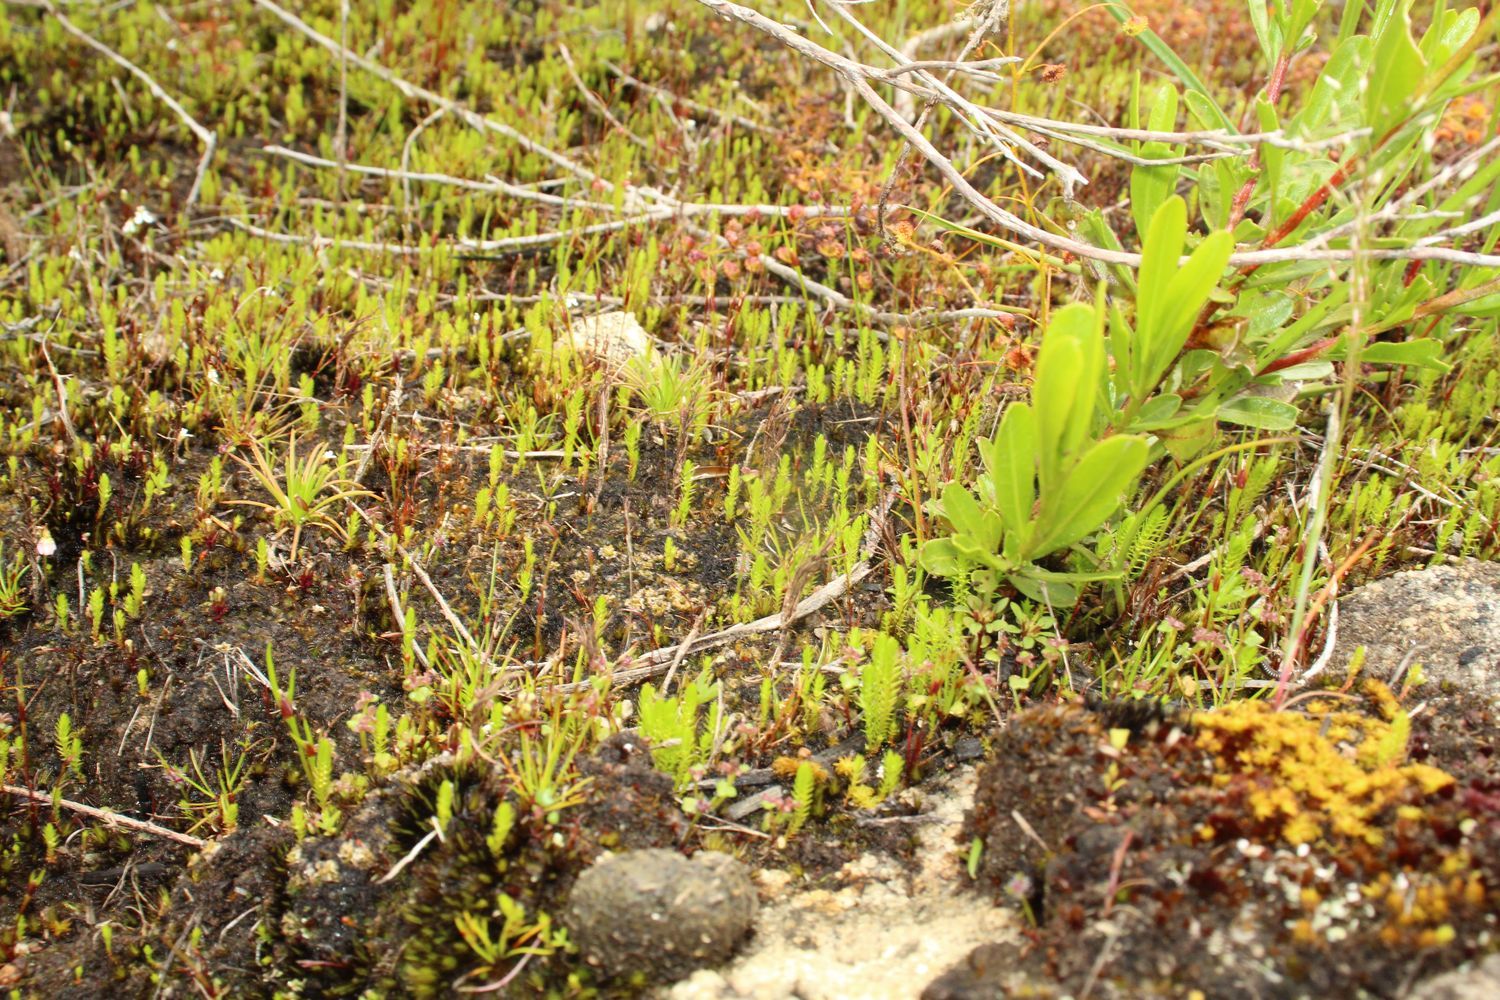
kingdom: Plantae
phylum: Tracheophyta
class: Lycopodiopsida
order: Selaginellales
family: Selaginellaceae
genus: Selaginella
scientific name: Selaginella gracillima
